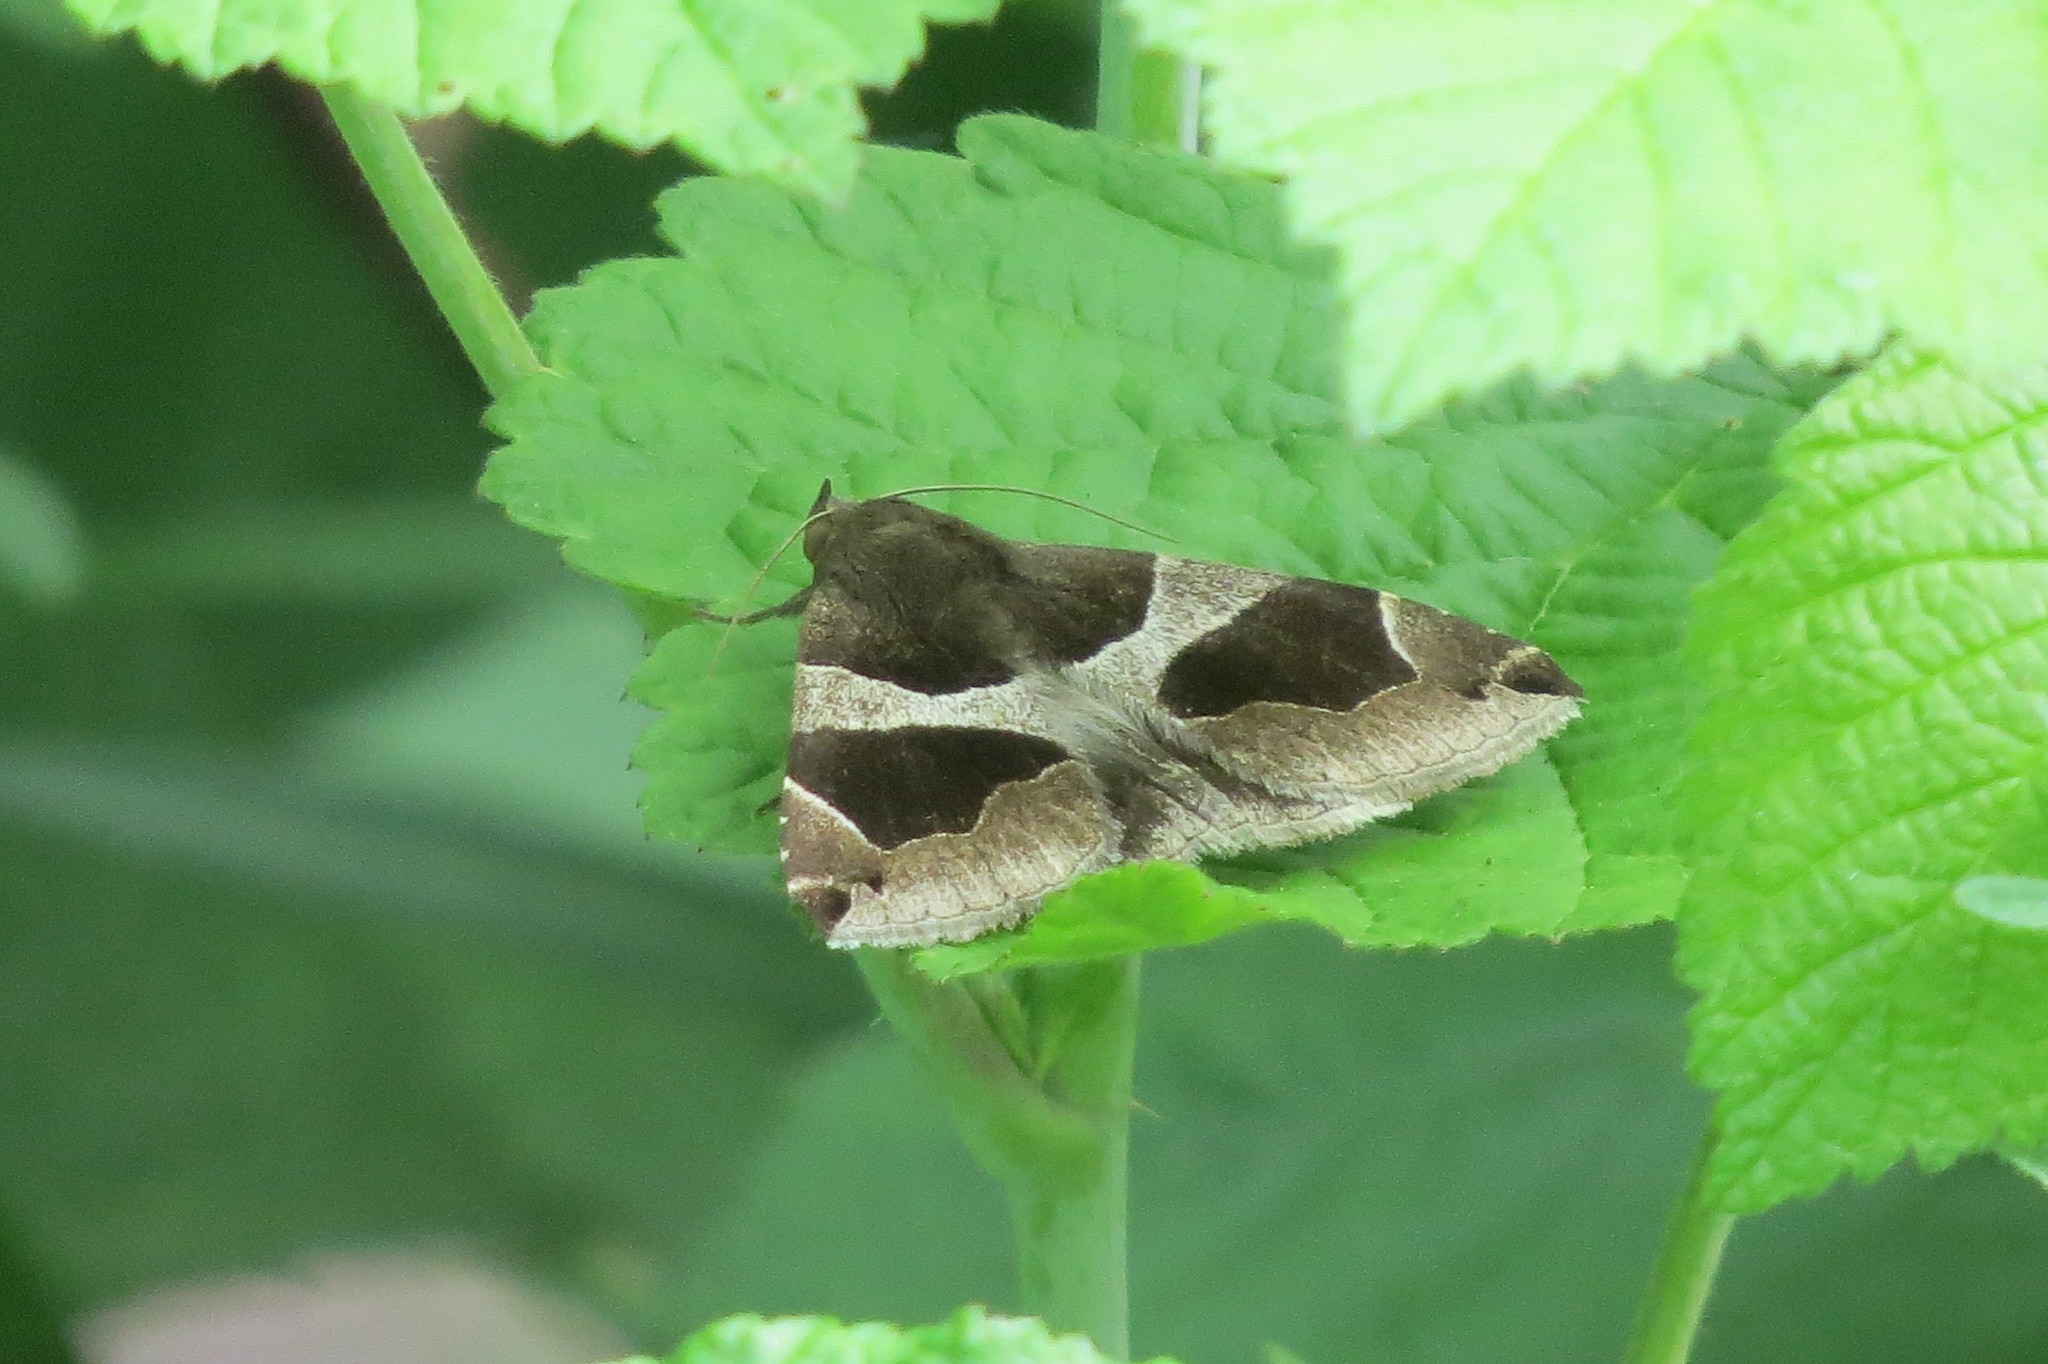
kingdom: Animalia
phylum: Arthropoda
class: Insecta
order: Lepidoptera
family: Erebidae
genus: Dysgonia
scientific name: Dysgonia algira
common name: Passenger
